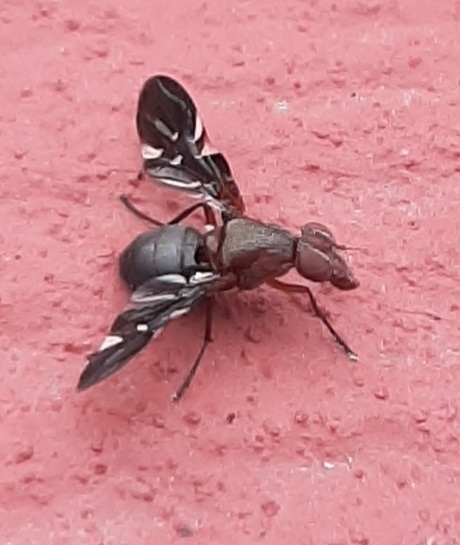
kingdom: Animalia
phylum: Arthropoda
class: Insecta
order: Diptera
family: Ulidiidae
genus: Delphinia
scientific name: Delphinia picta
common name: Common picture-winged fly
